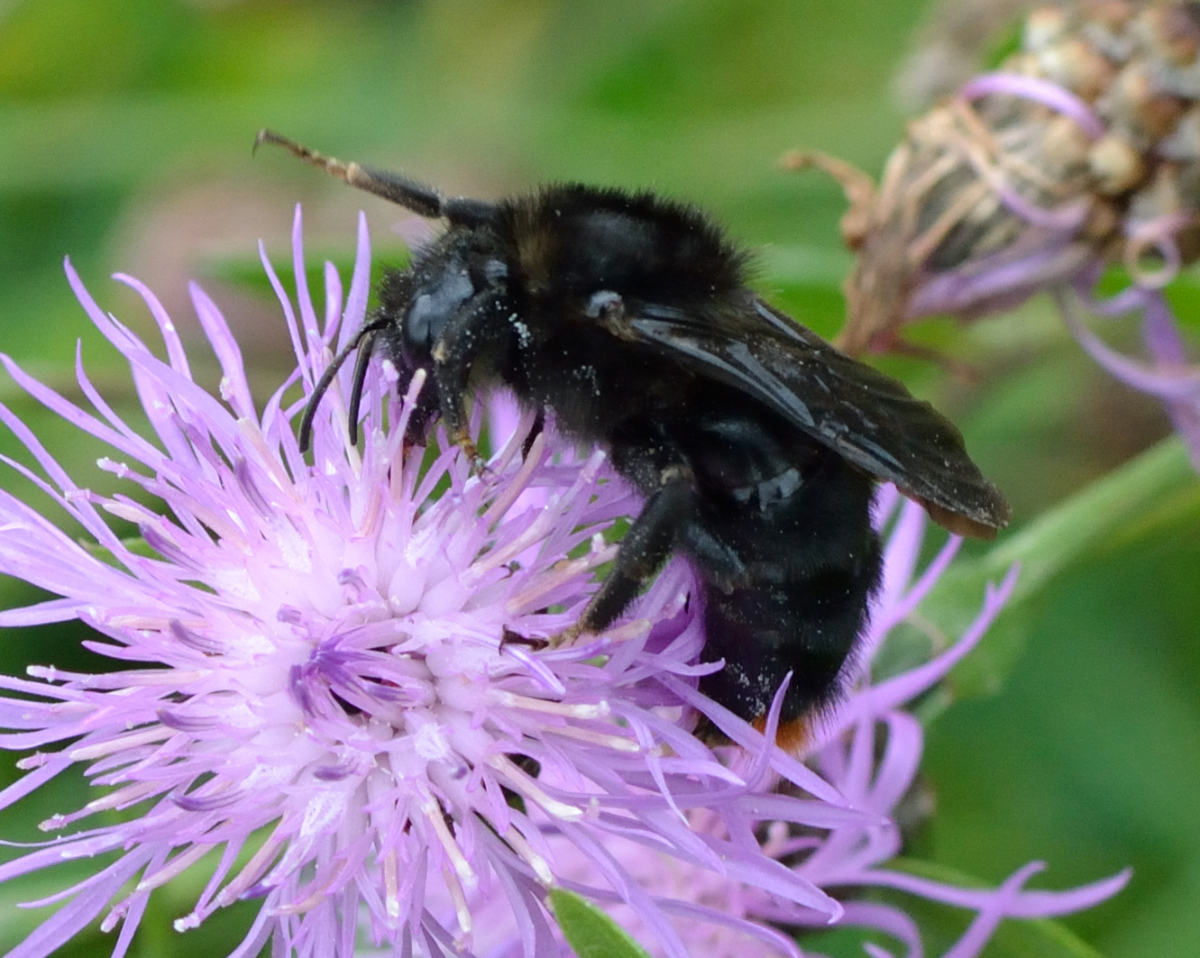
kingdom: Animalia
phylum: Arthropoda
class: Insecta
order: Hymenoptera
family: Apidae
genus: Bombus
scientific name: Bombus rupestris
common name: Hill cuckoo-bee
